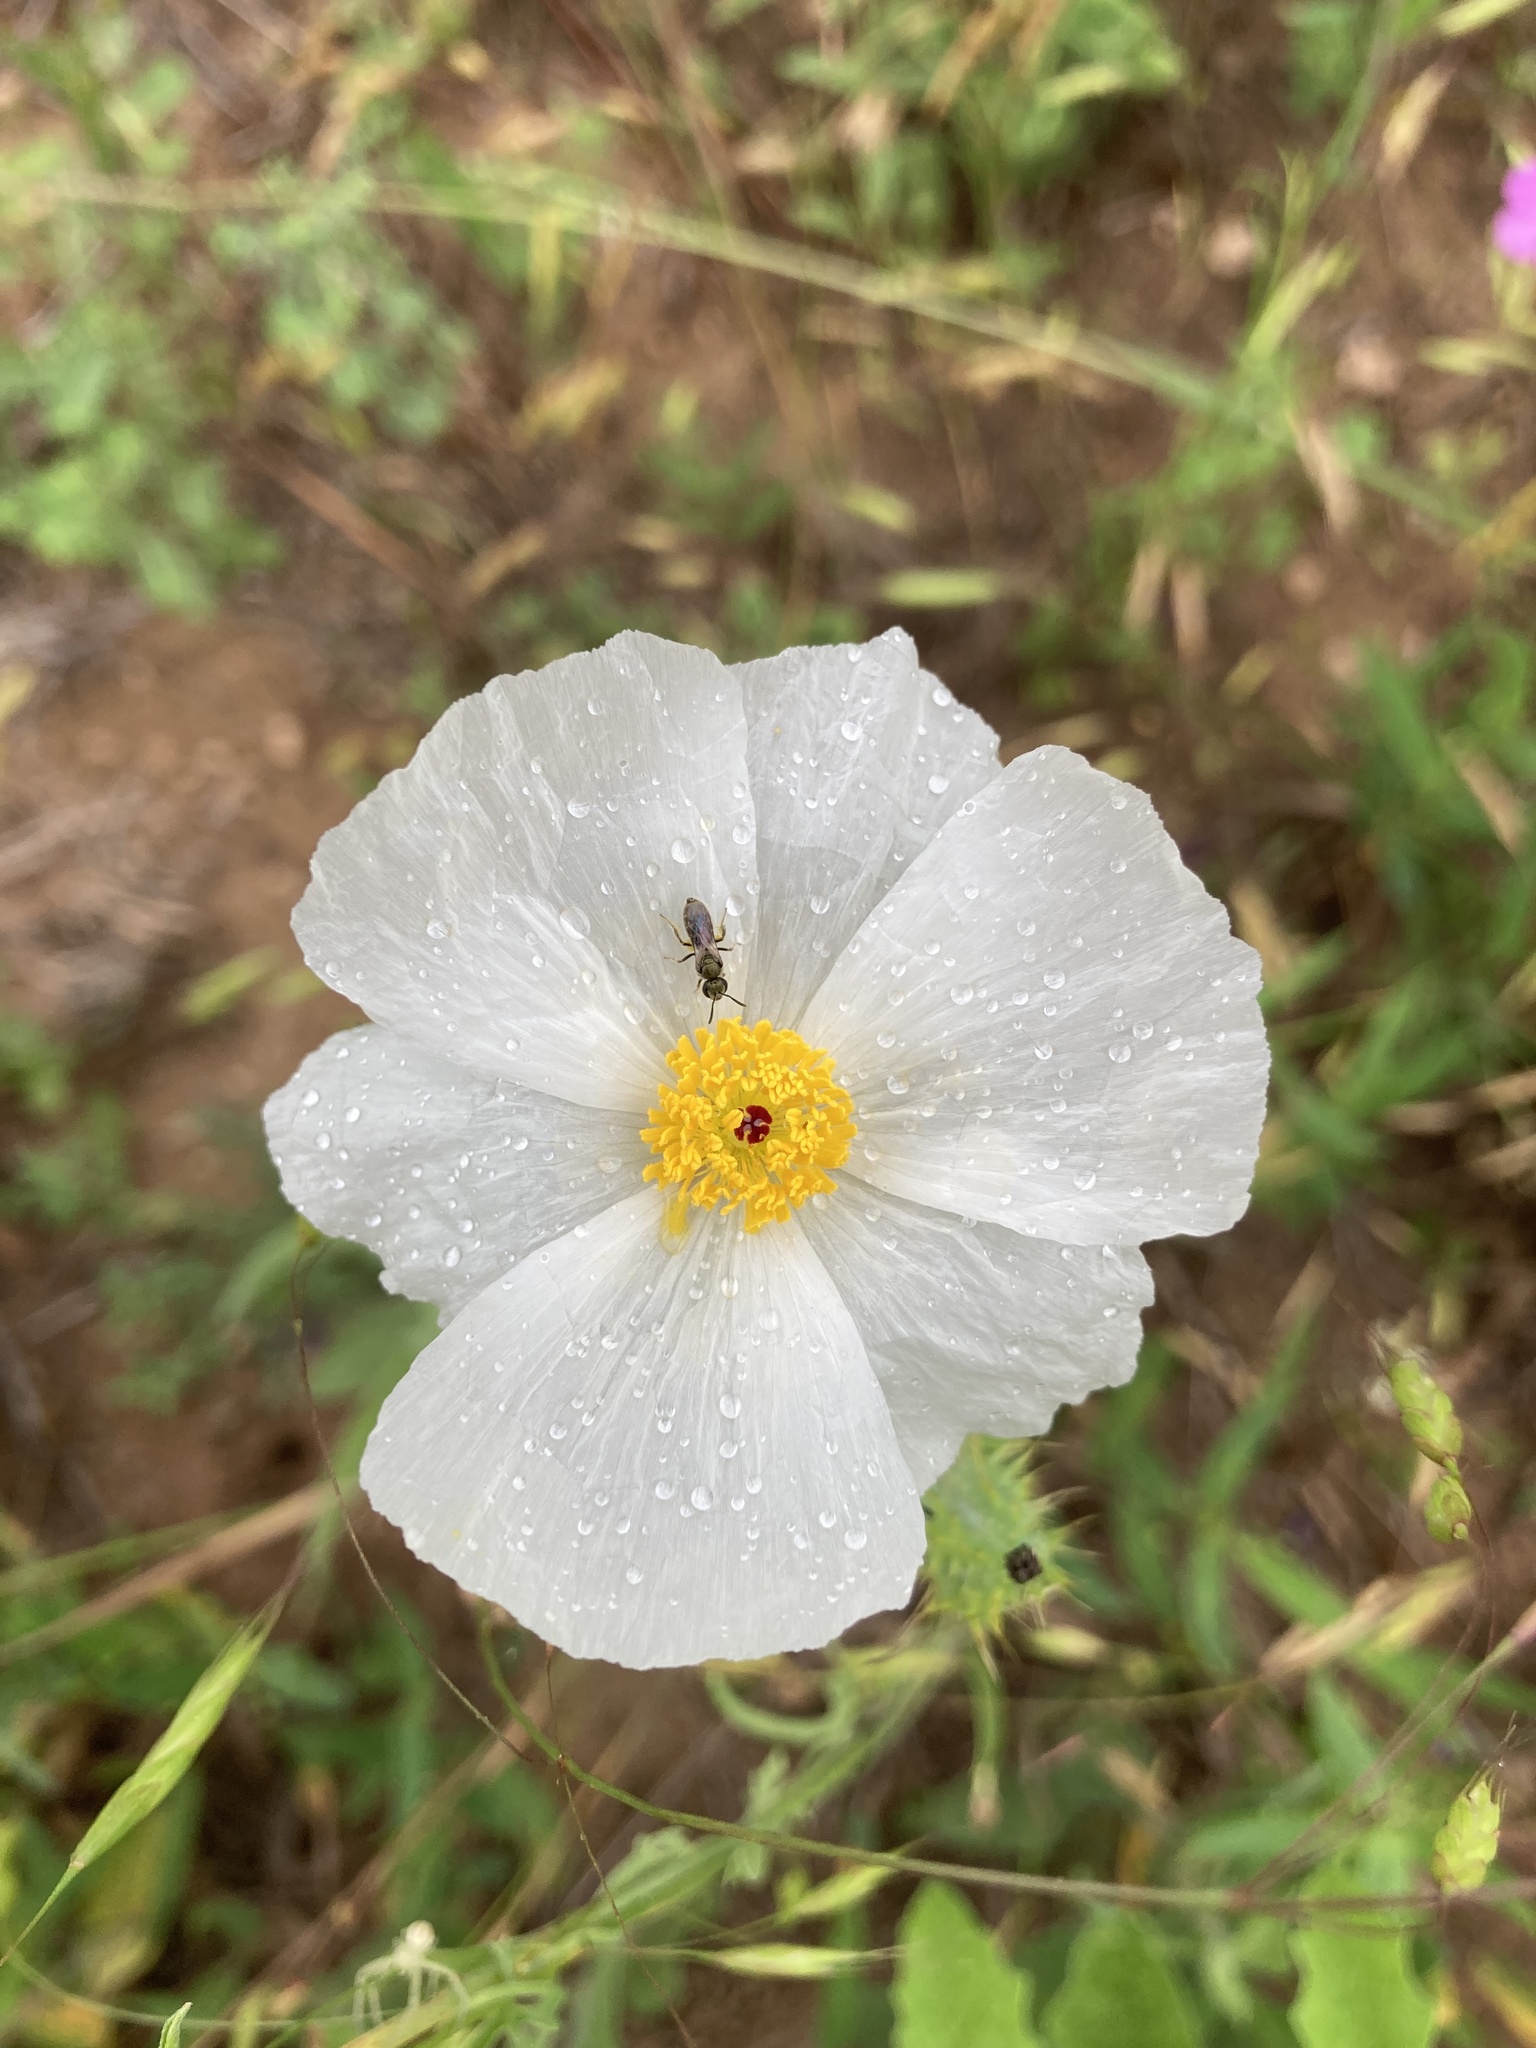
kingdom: Plantae
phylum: Tracheophyta
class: Magnoliopsida
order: Ranunculales
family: Papaveraceae
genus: Argemone
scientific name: Argemone albiflora
